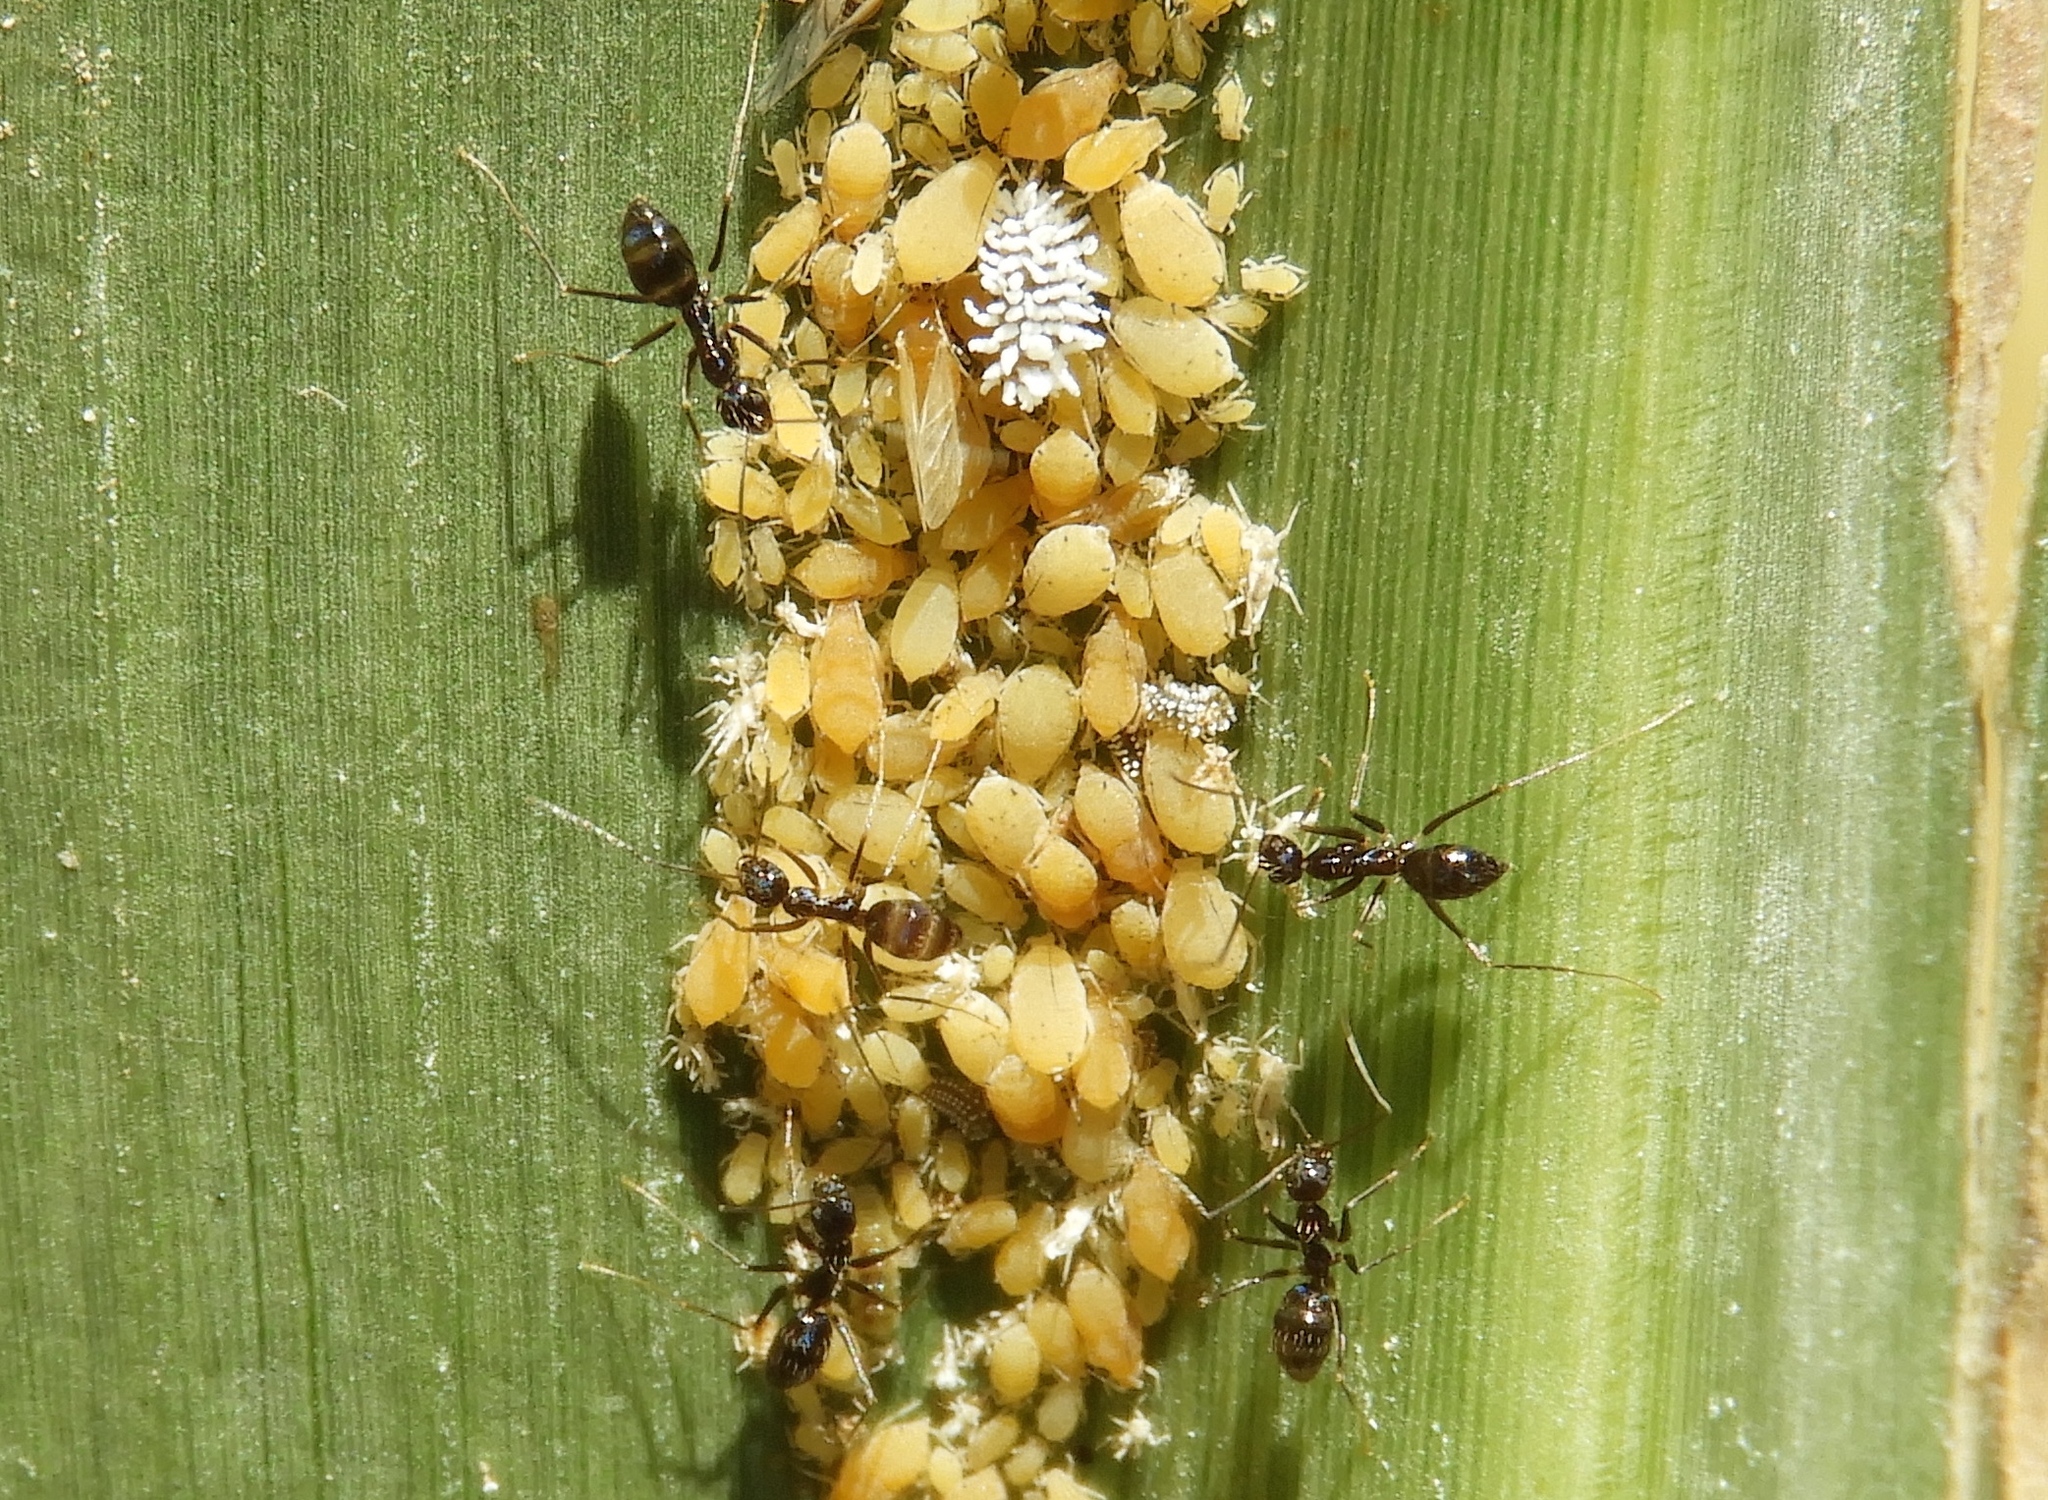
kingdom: Animalia
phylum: Arthropoda
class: Insecta
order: Hymenoptera
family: Formicidae
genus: Paratrechina
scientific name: Paratrechina longicornis
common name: Longhorned crazy ant
